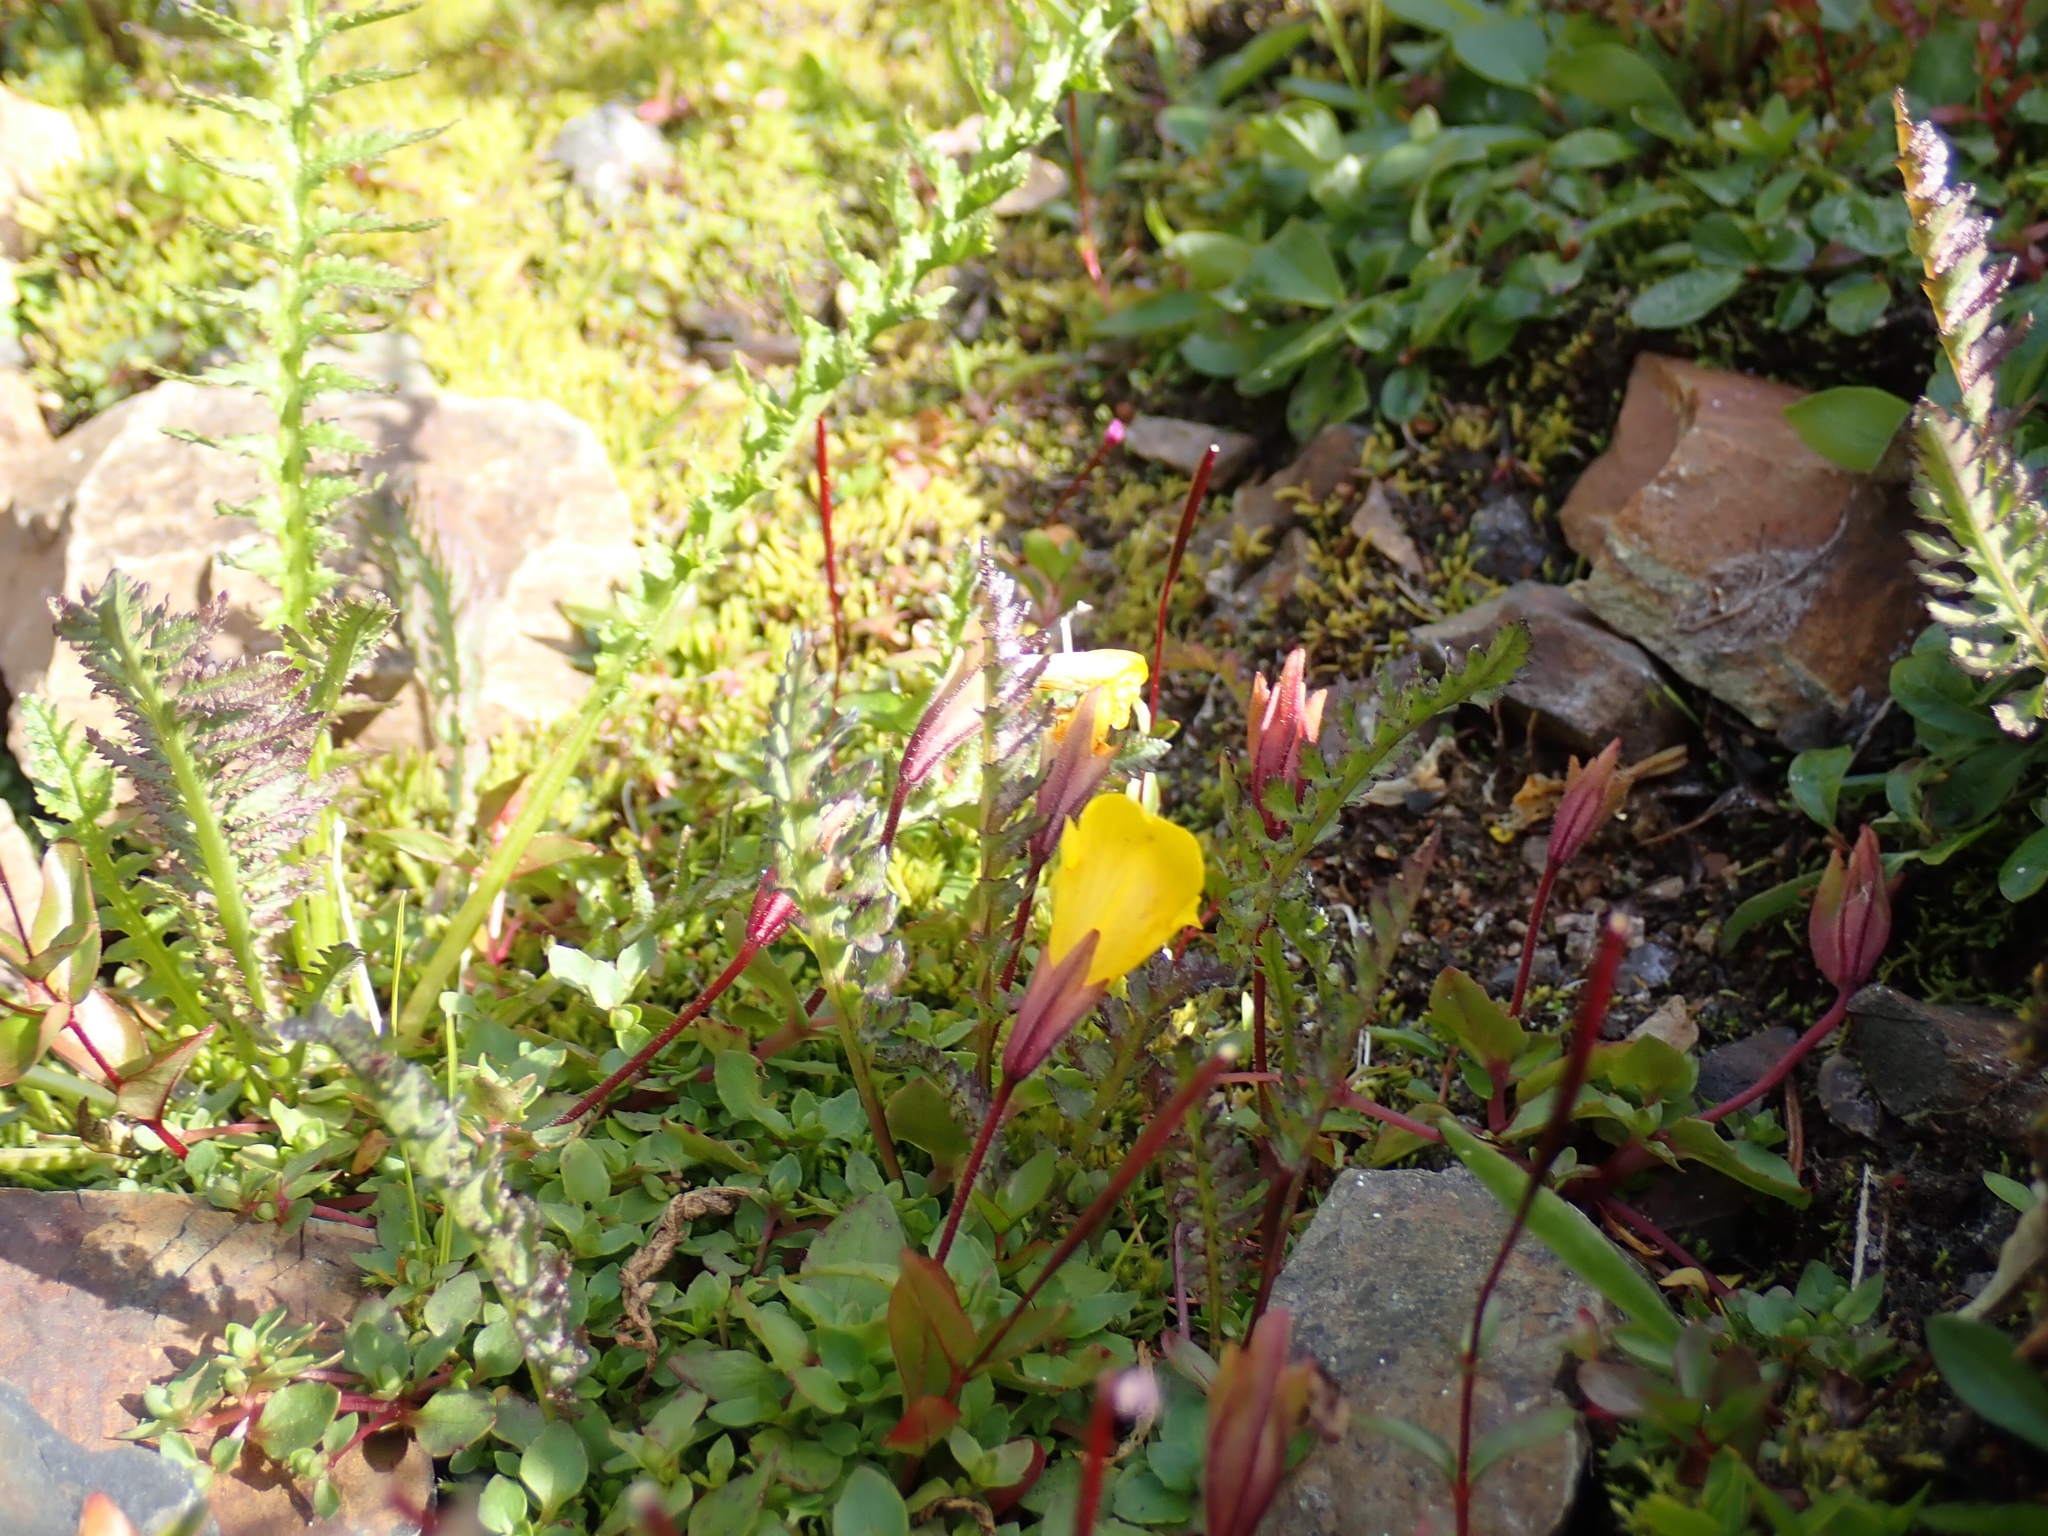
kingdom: Plantae
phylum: Tracheophyta
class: Magnoliopsida
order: Lamiales
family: Phrymaceae
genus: Erythranthe
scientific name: Erythranthe caespitosa
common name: Subalpine monkeyflower
